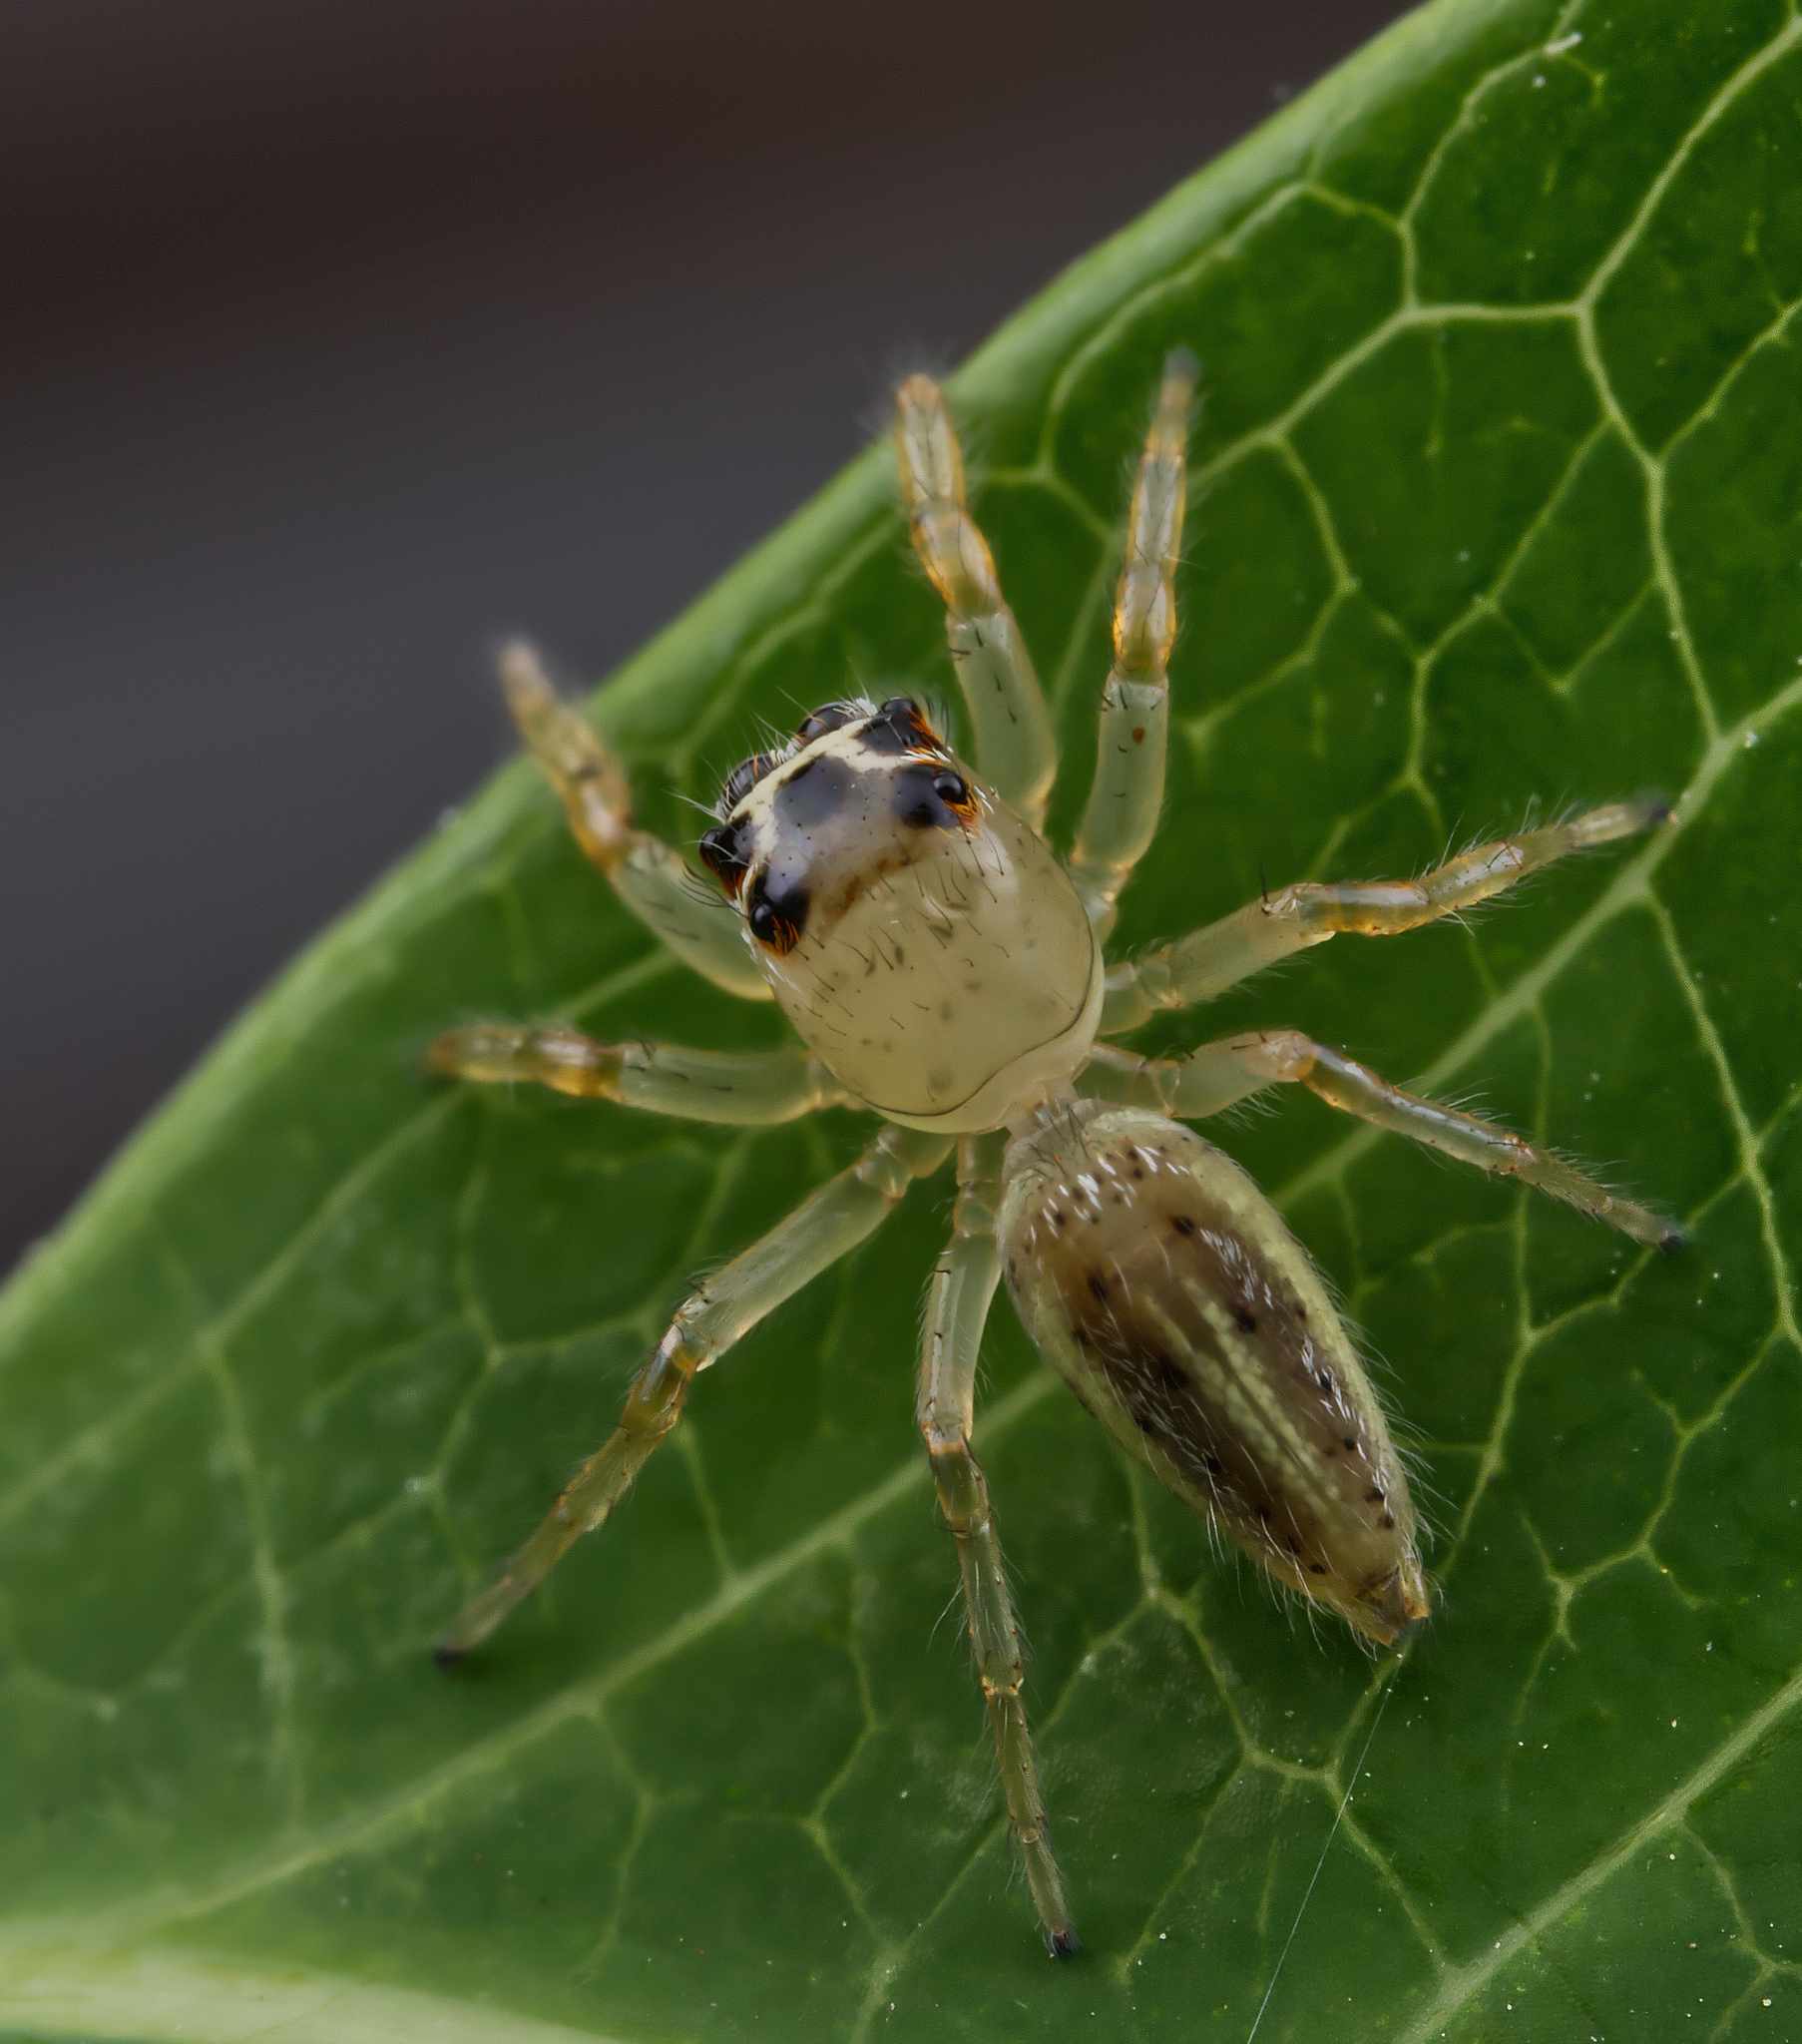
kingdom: Animalia
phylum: Arthropoda
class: Arachnida
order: Araneae
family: Salticidae
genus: Colonus
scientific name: Colonus sylvanus
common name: Jumping spiders
